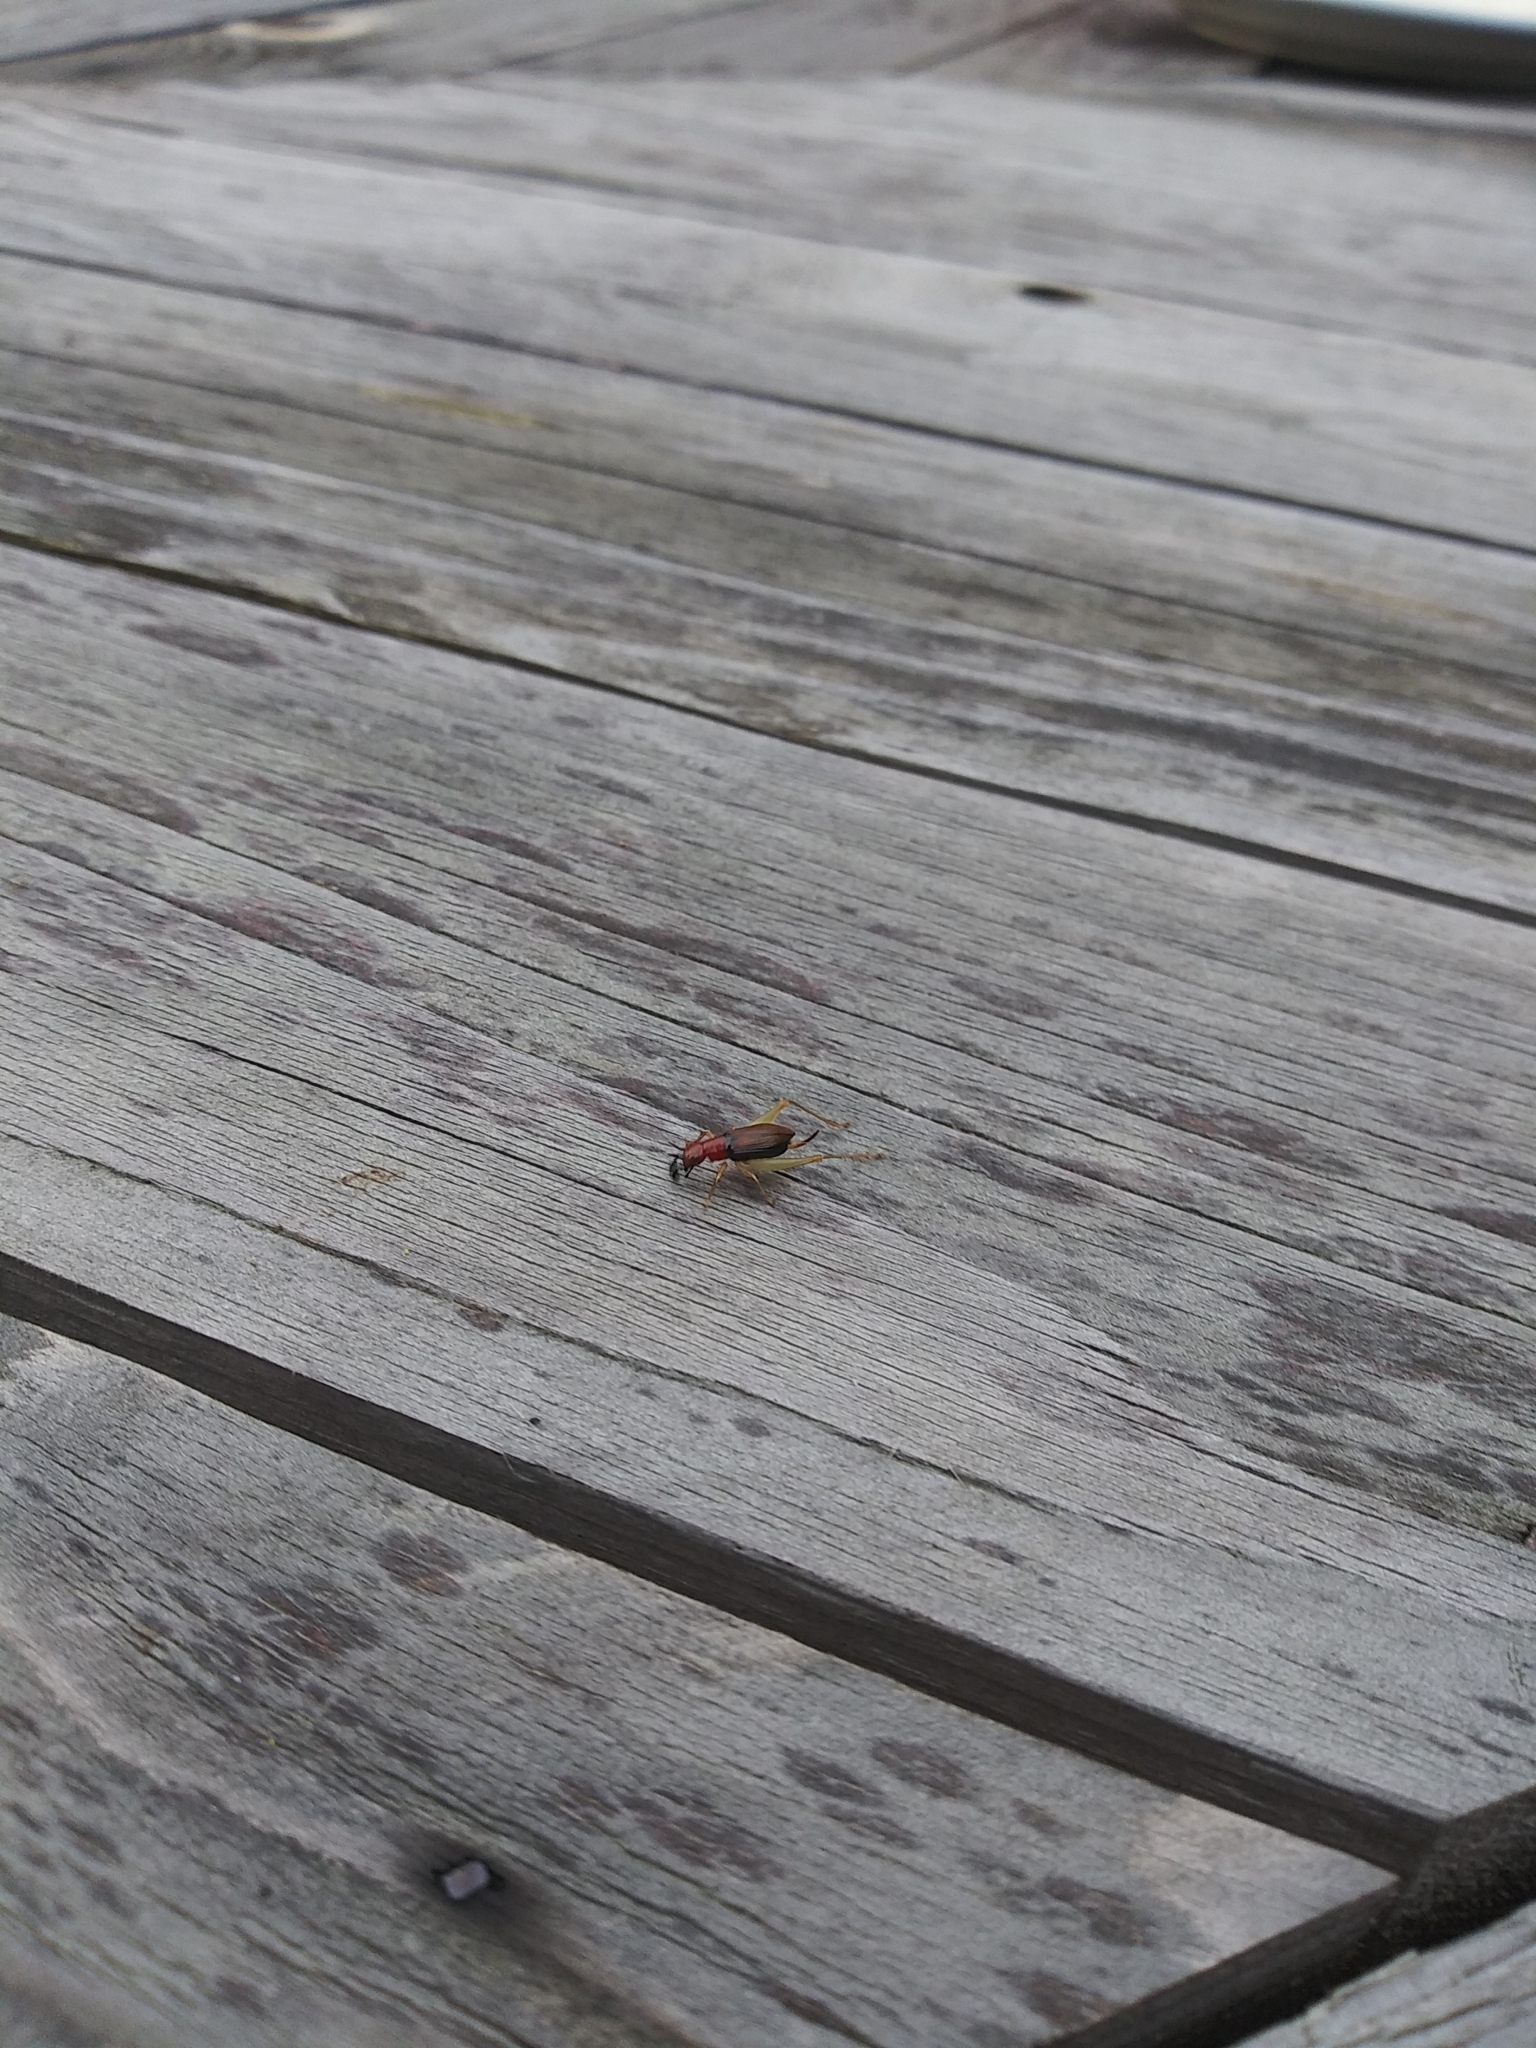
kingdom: Animalia
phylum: Arthropoda
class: Insecta
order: Orthoptera
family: Trigonidiidae
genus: Phyllopalpus
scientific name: Phyllopalpus pulchellus
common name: Handsome trig
